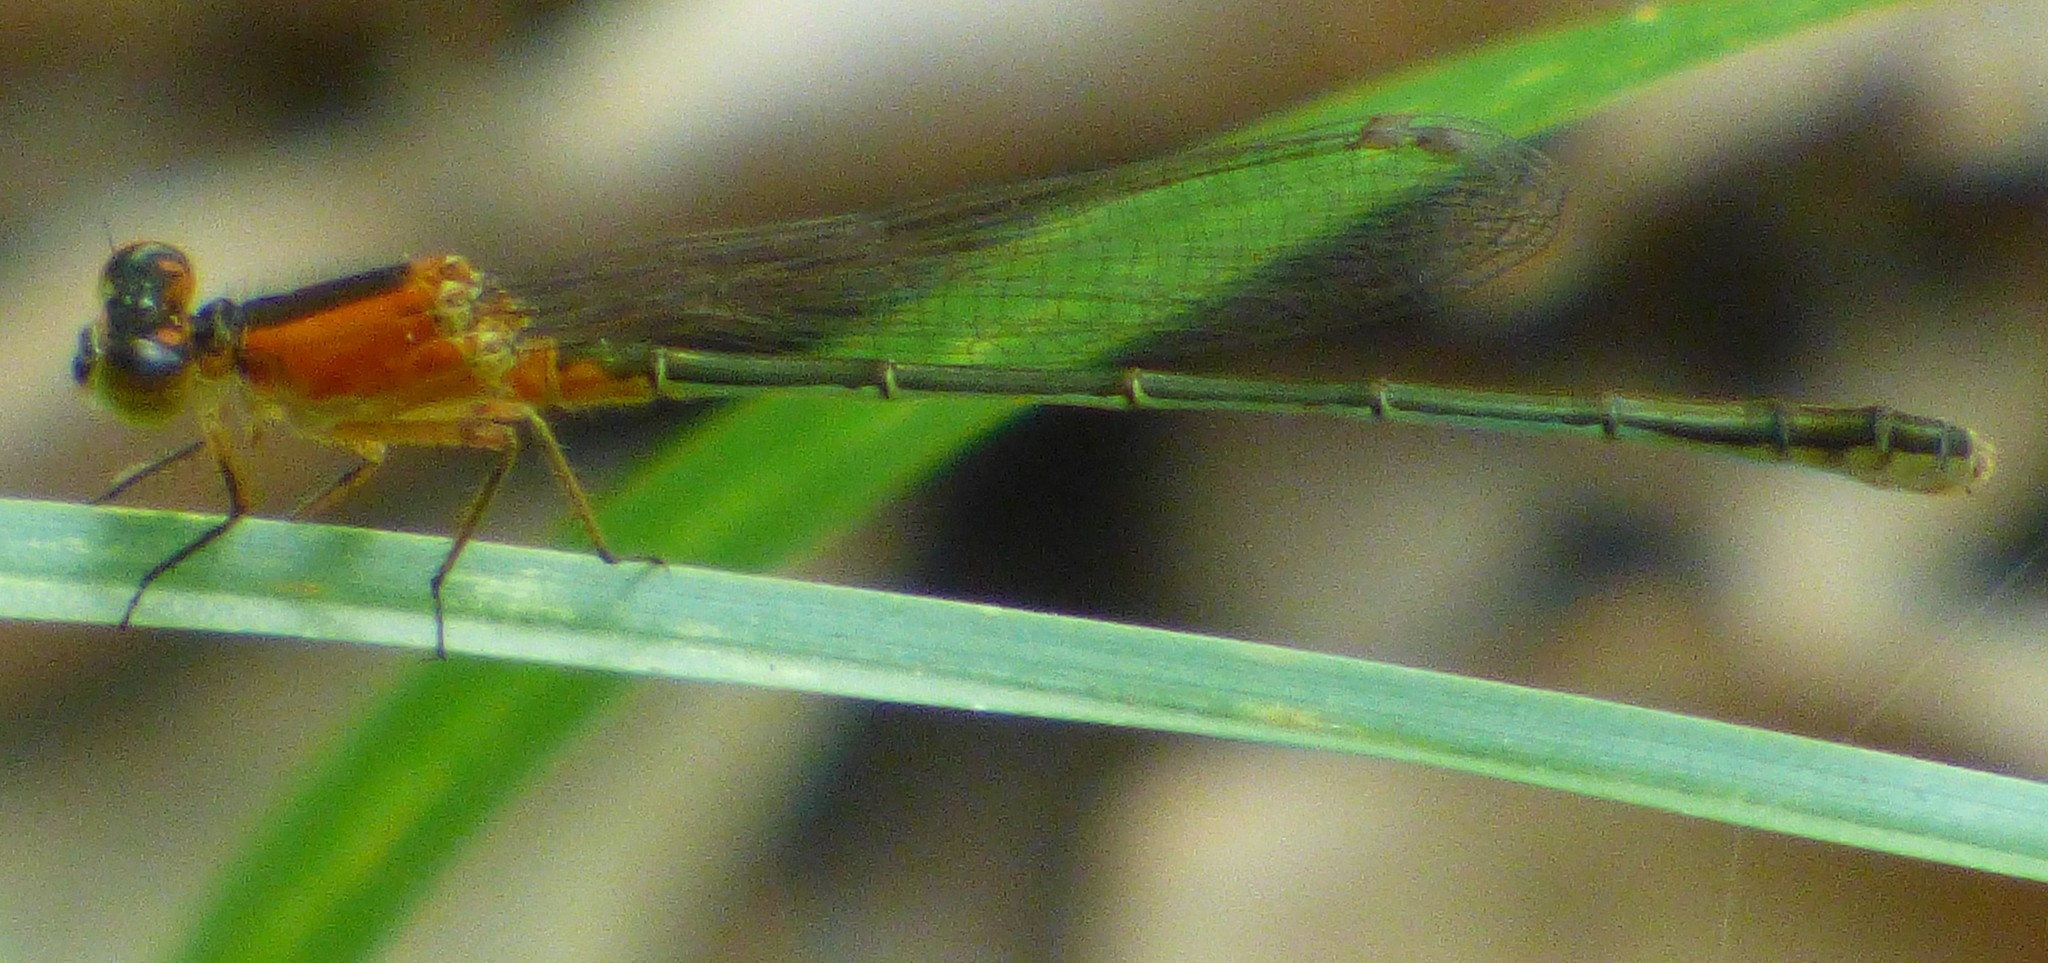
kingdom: Animalia
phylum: Arthropoda
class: Insecta
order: Odonata
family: Coenagrionidae
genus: Ischnura
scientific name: Ischnura ramburii
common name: Rambur's forktail
